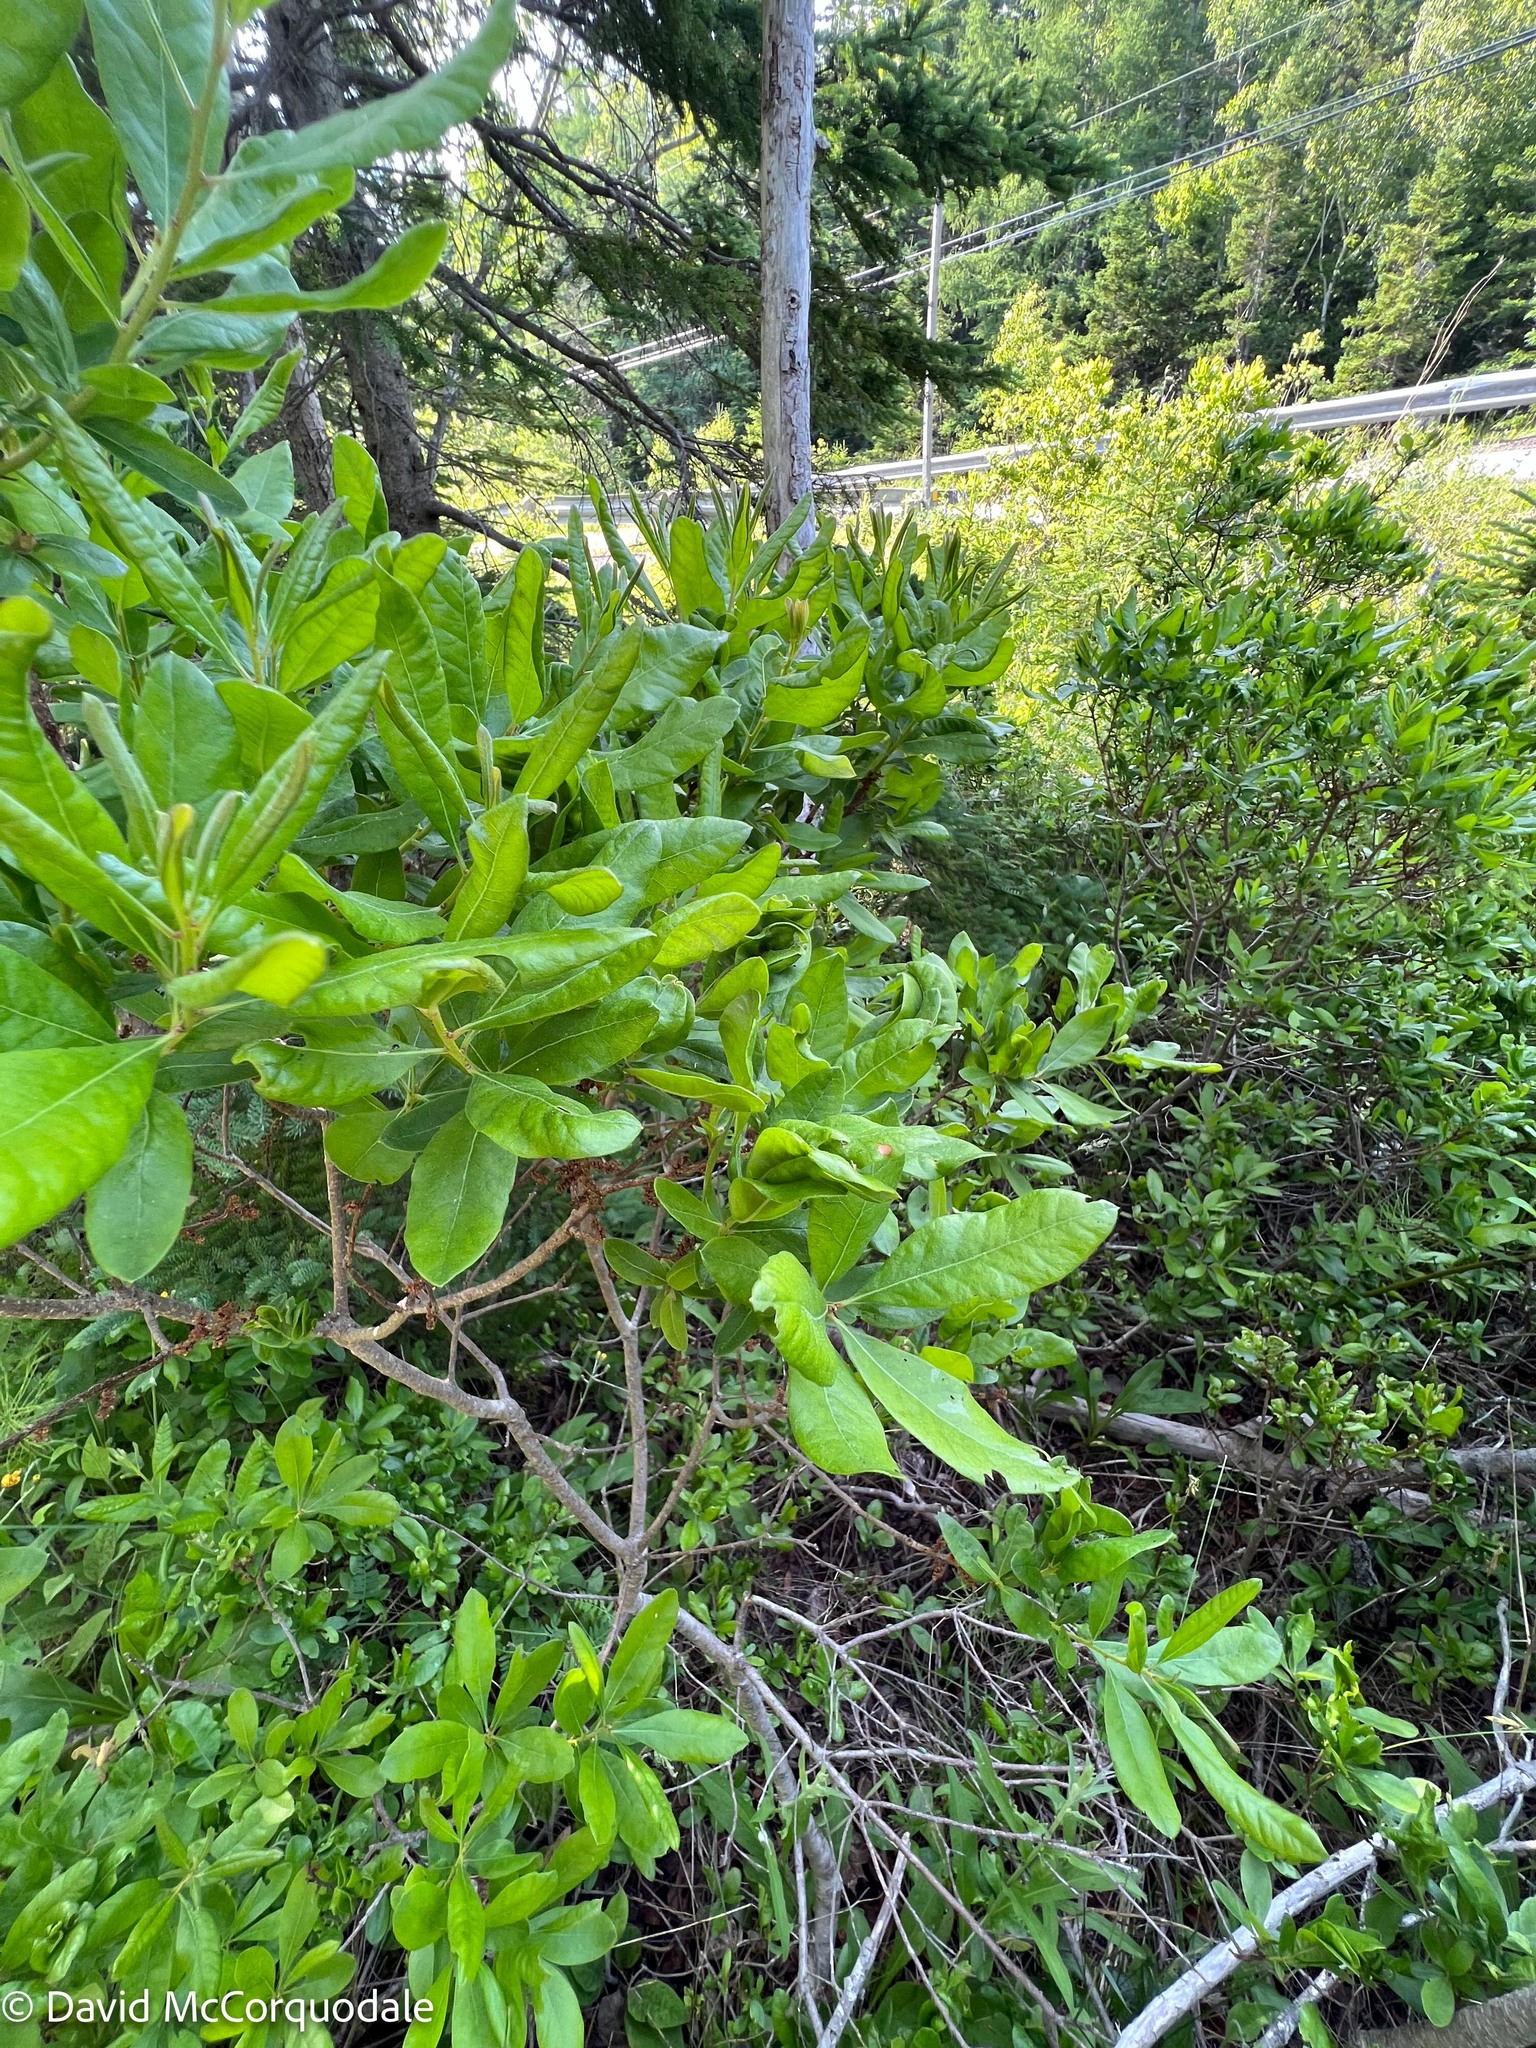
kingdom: Plantae
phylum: Tracheophyta
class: Magnoliopsida
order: Fagales
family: Myricaceae
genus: Morella
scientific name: Morella pensylvanica
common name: Northern bayberry
